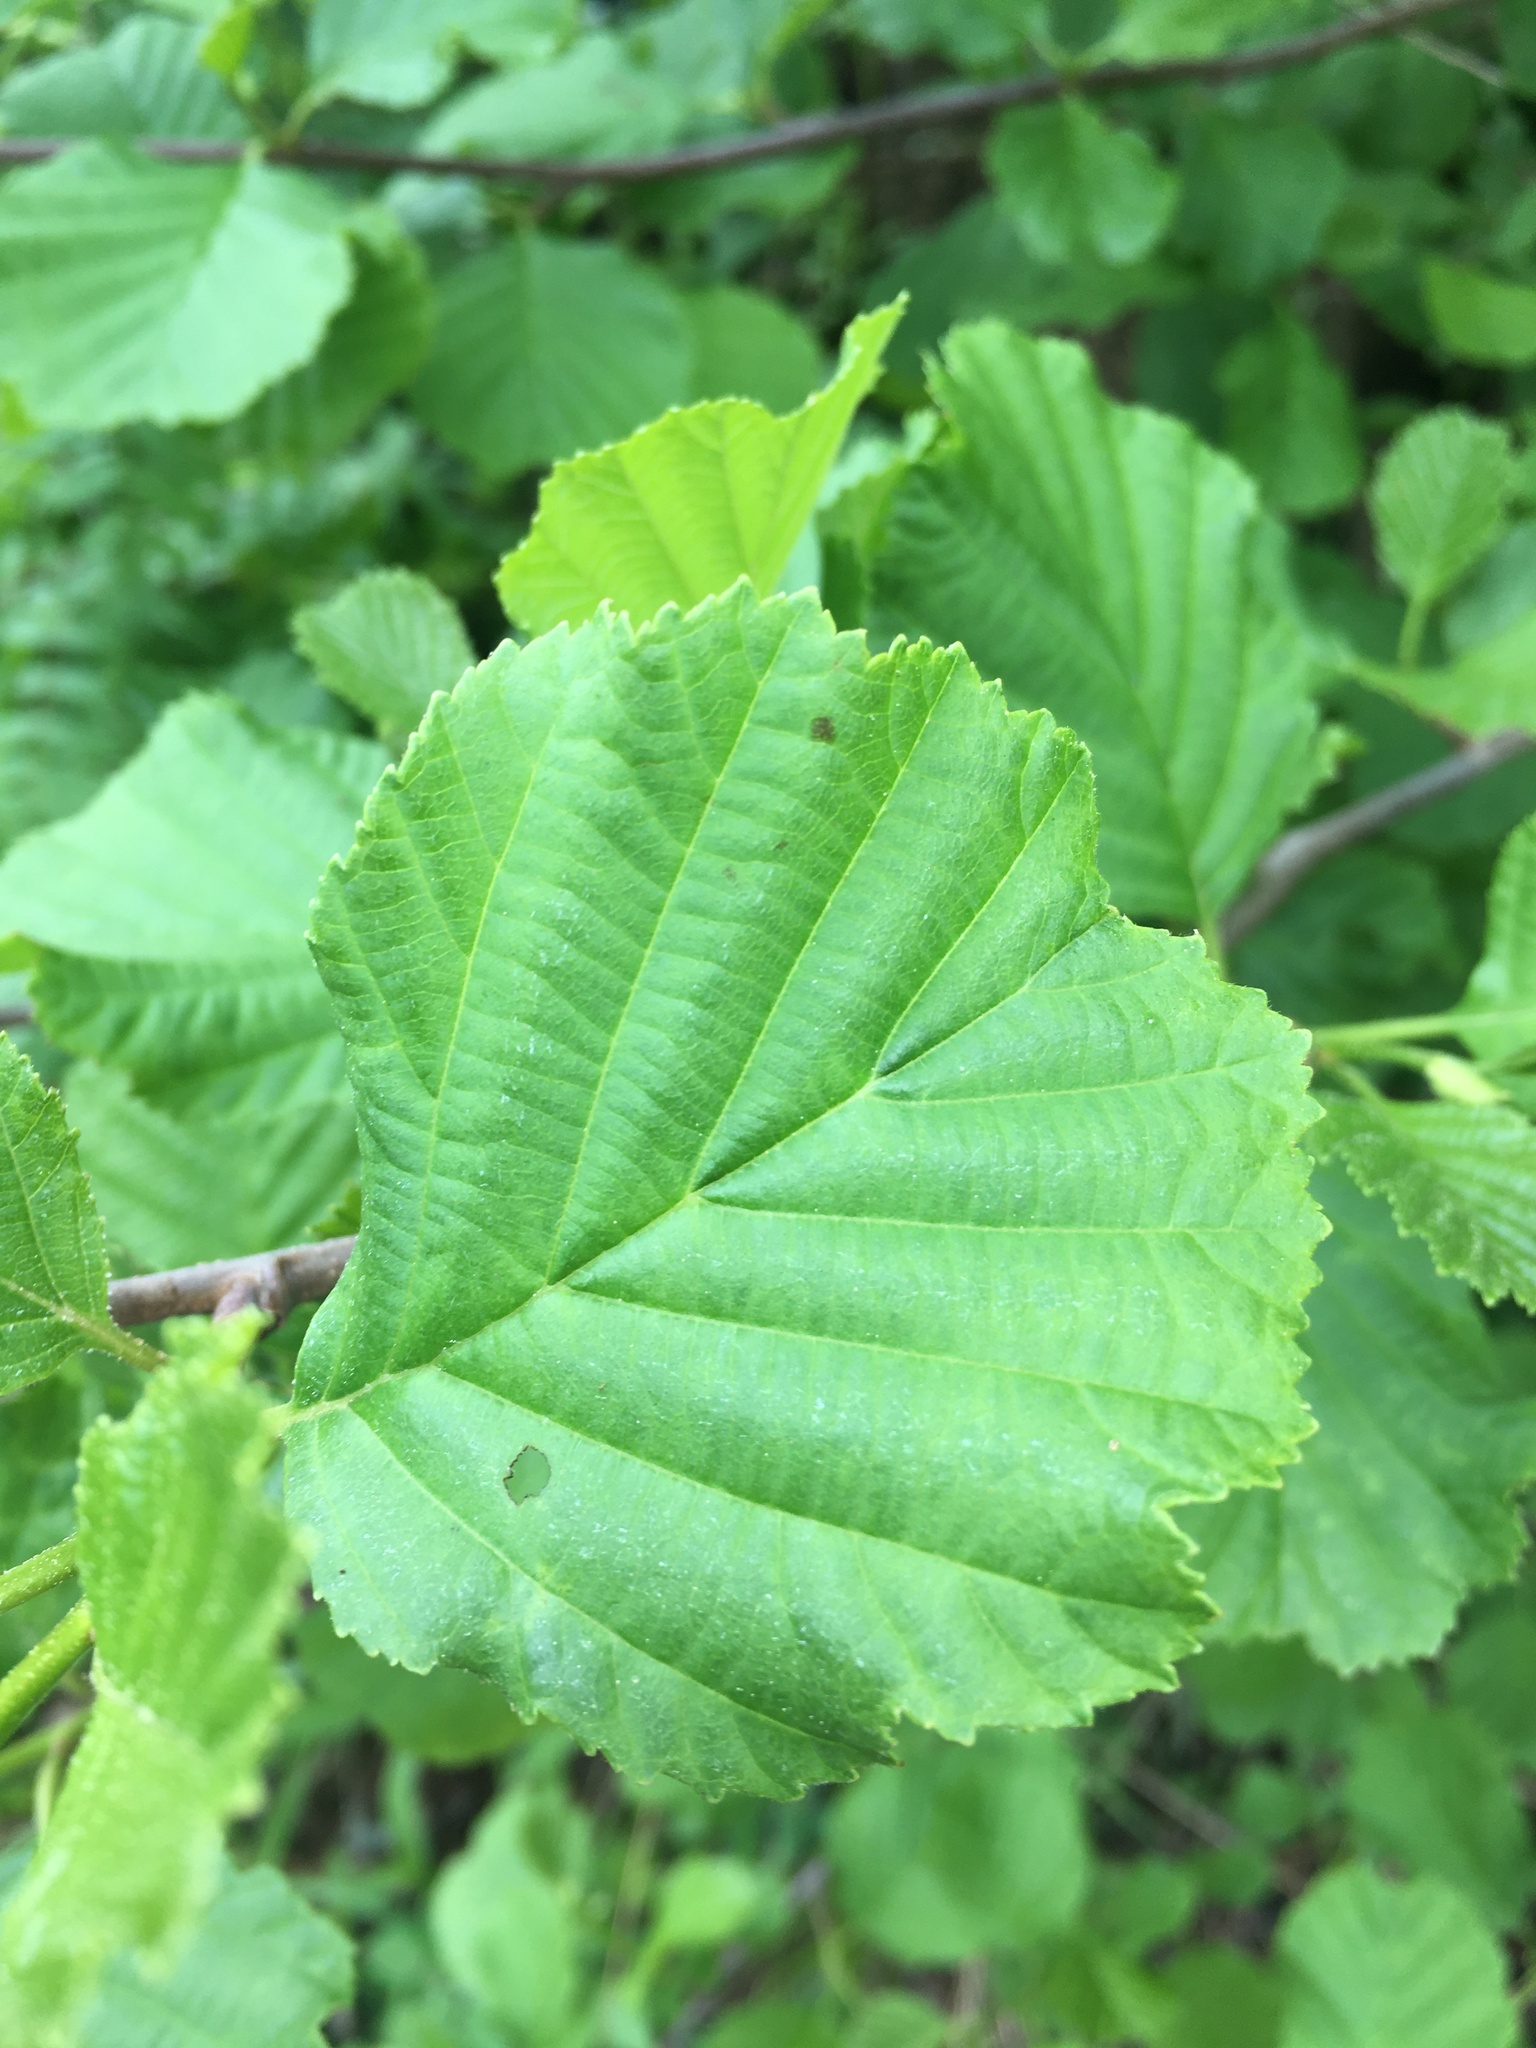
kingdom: Plantae
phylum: Tracheophyta
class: Magnoliopsida
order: Fagales
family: Betulaceae
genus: Alnus
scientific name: Alnus glutinosa
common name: Black alder
